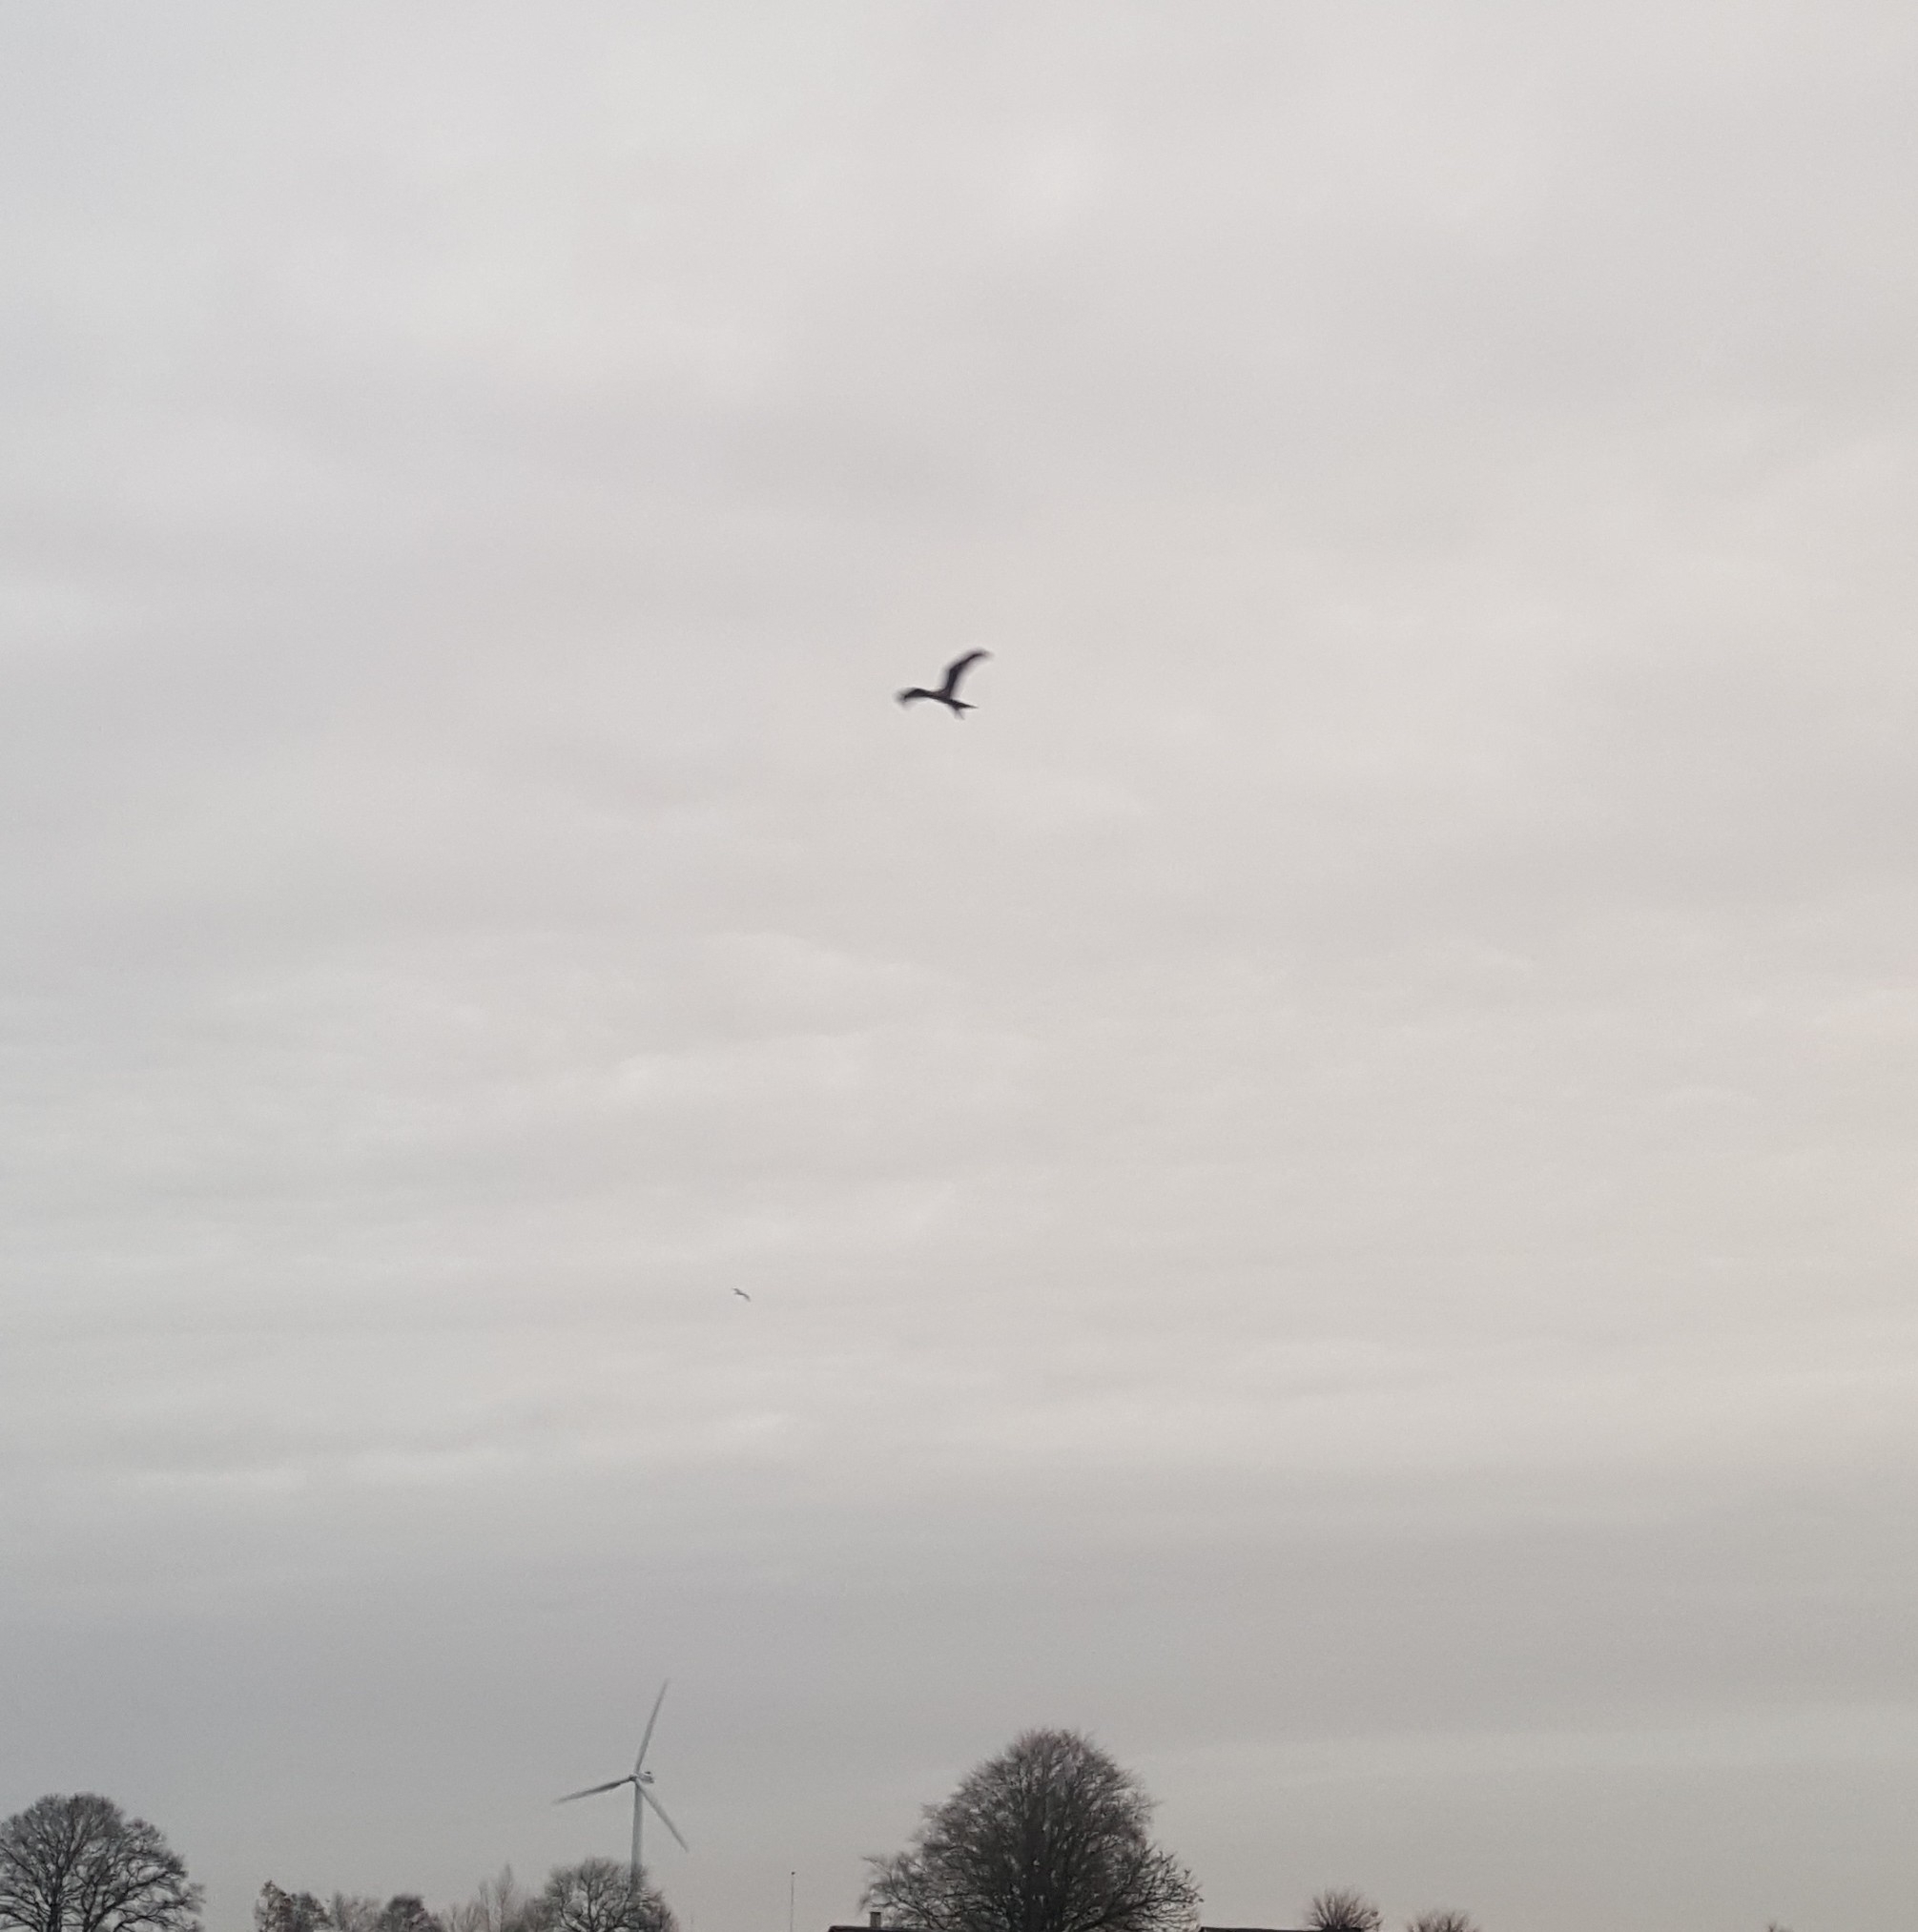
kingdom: Animalia
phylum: Chordata
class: Aves
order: Accipitriformes
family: Accipitridae
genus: Milvus
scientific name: Milvus milvus
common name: Red kite
